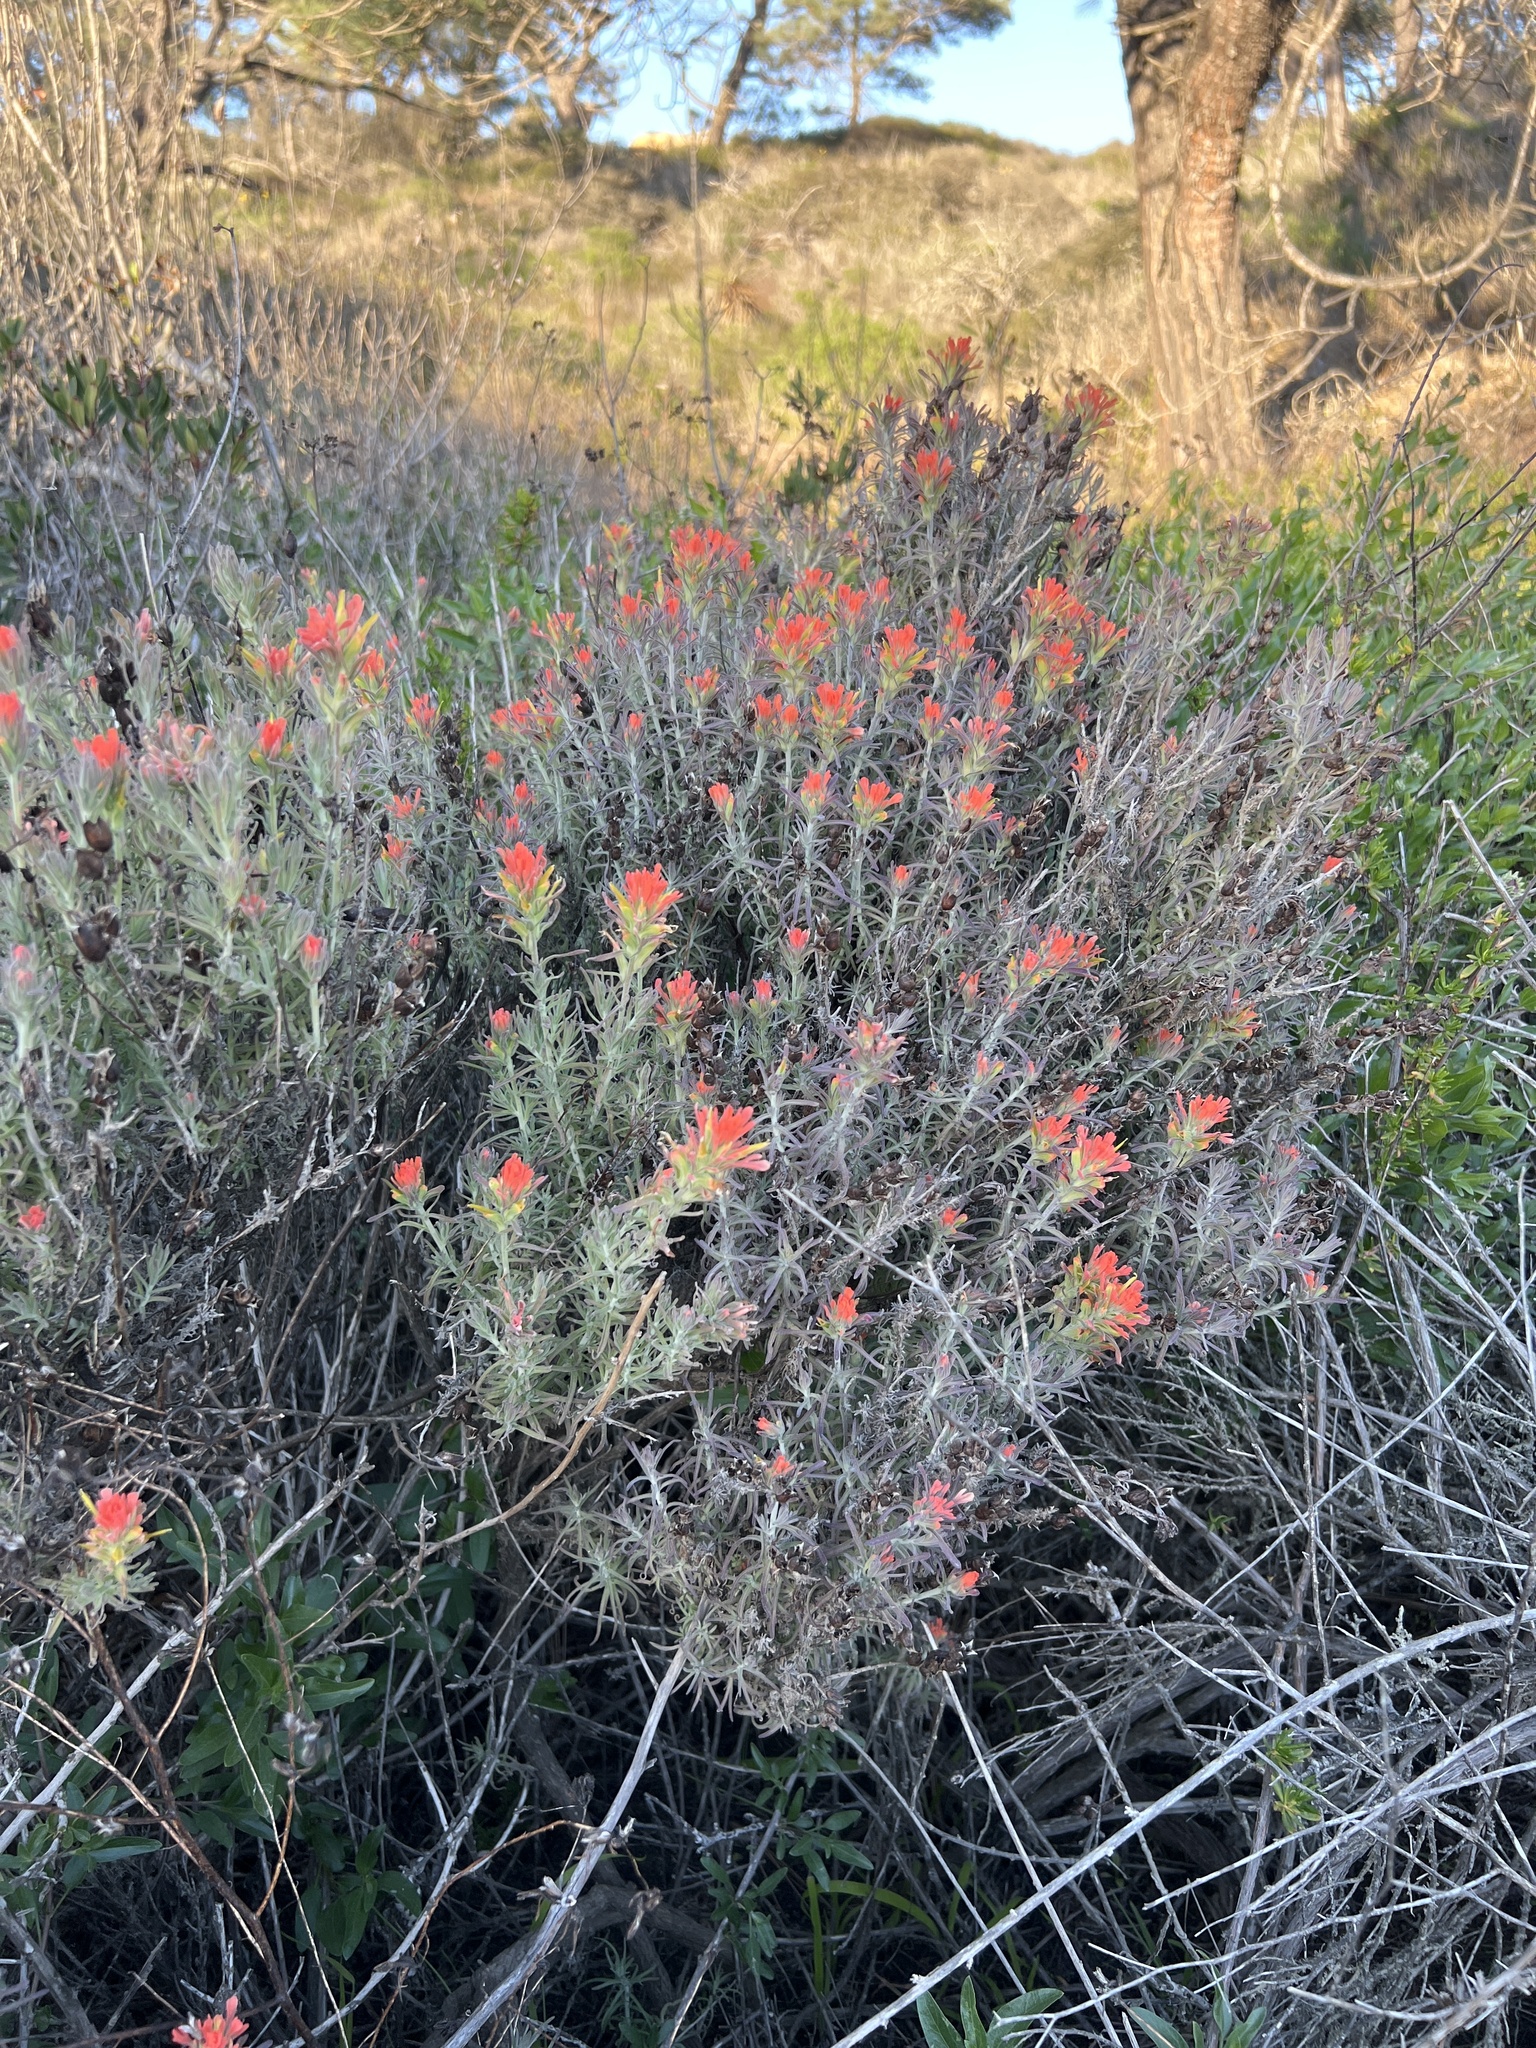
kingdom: Plantae
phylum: Tracheophyta
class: Magnoliopsida
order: Lamiales
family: Orobanchaceae
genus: Castilleja
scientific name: Castilleja foliolosa
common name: Woolly indian paintbrush
